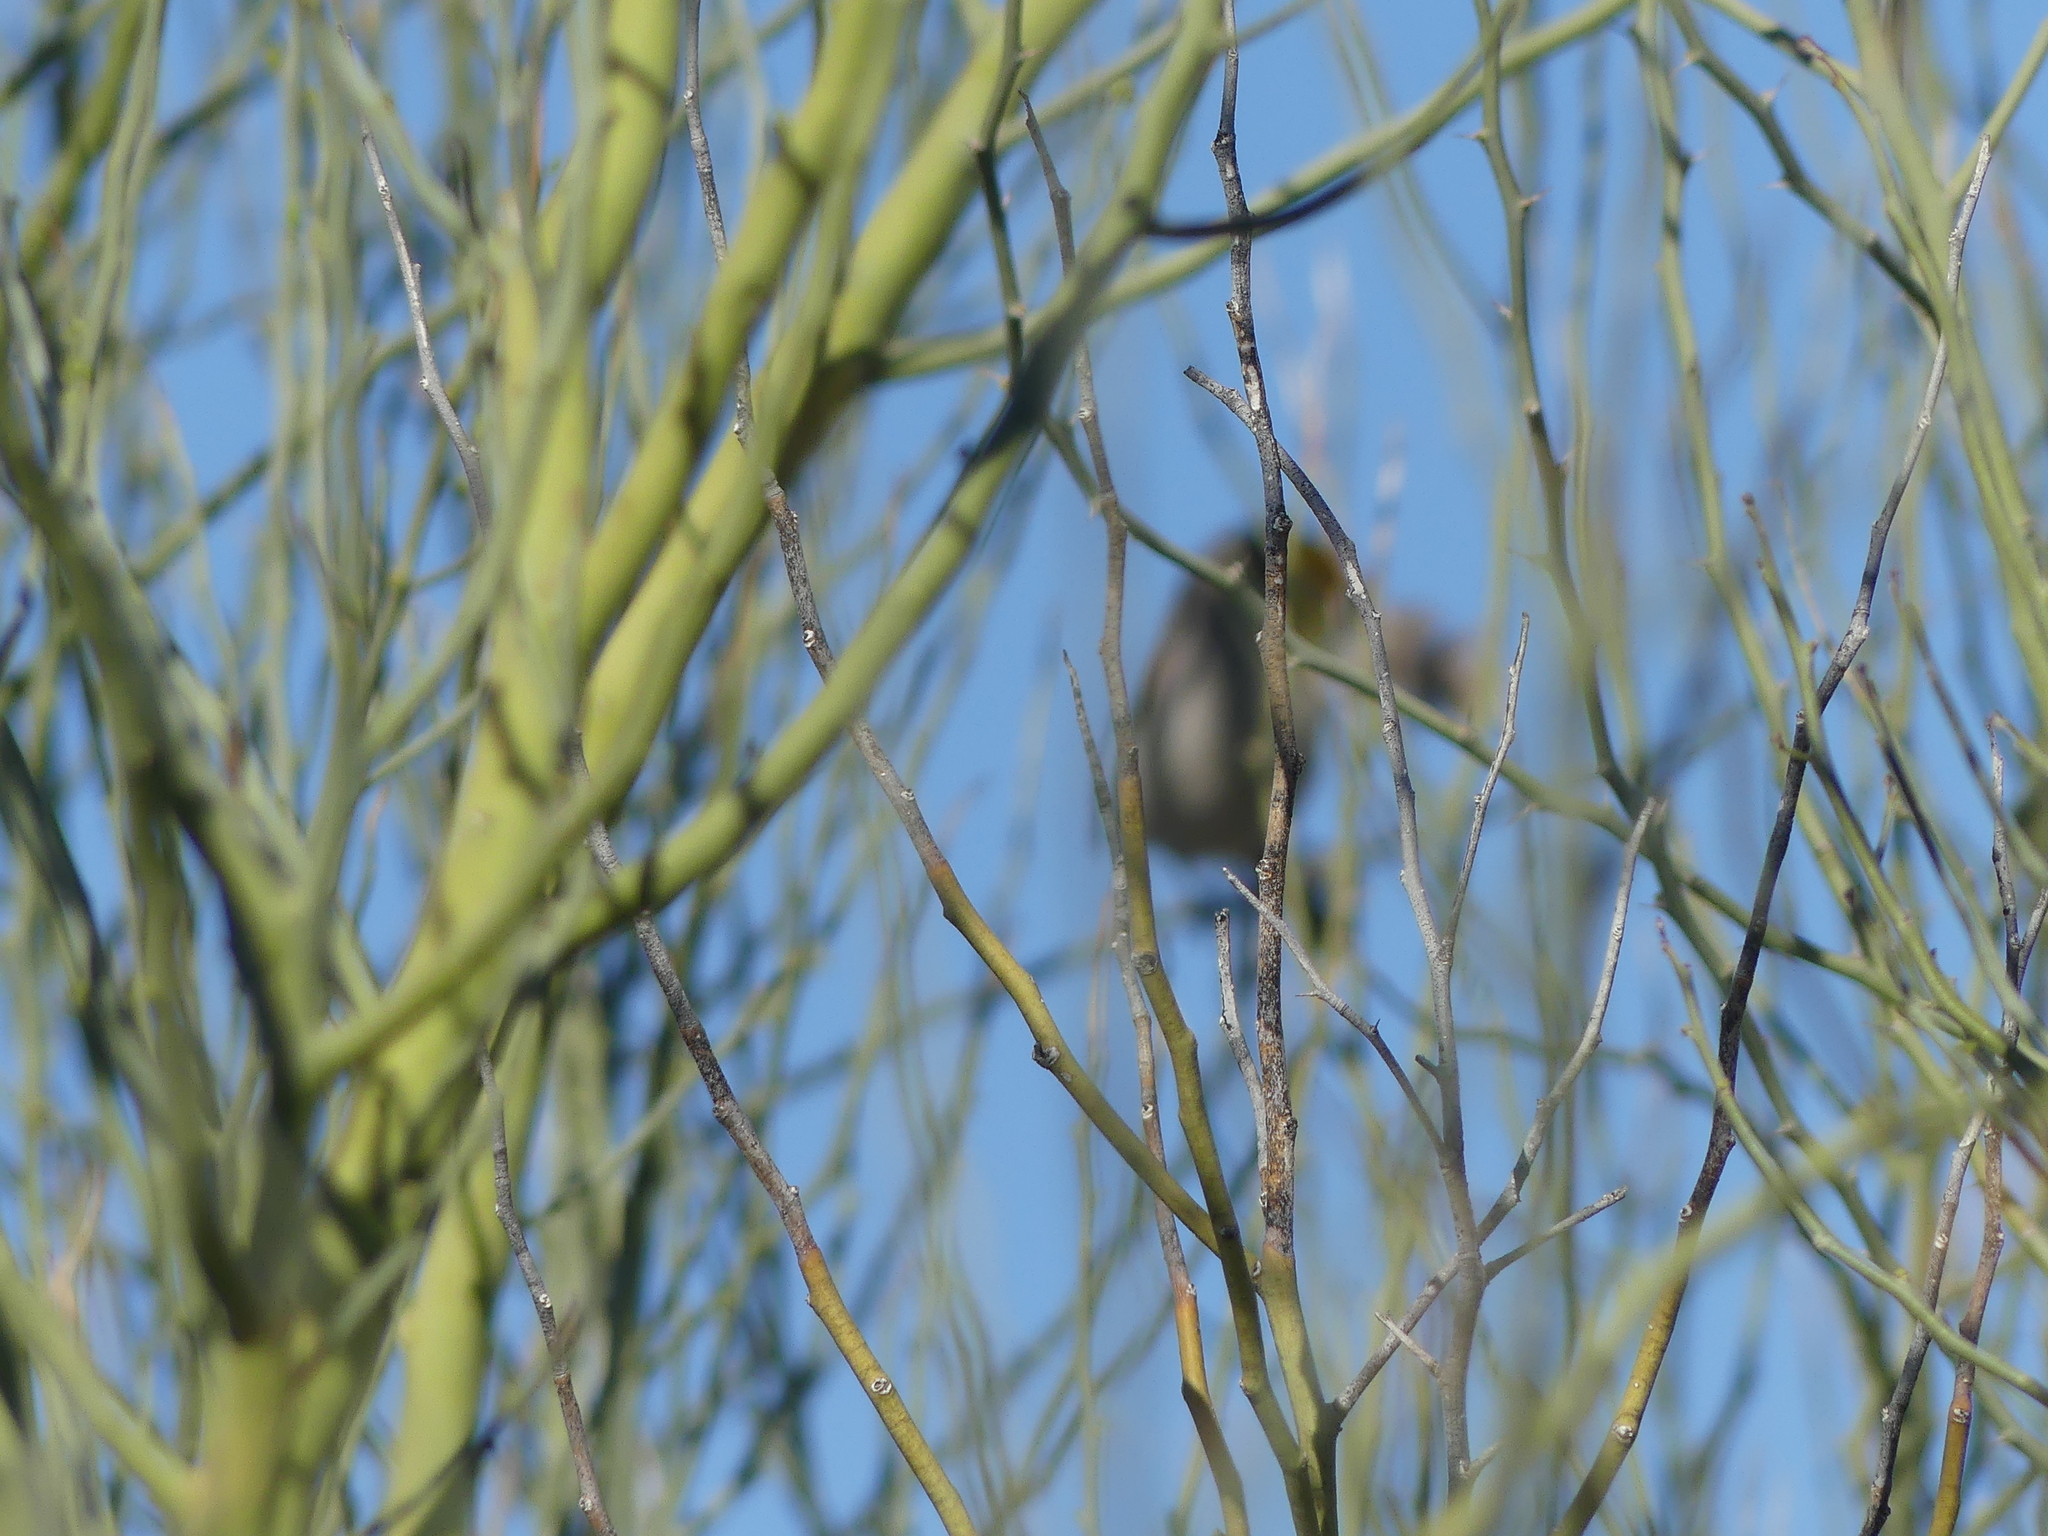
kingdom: Animalia
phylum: Chordata
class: Aves
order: Passeriformes
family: Remizidae
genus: Auriparus
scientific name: Auriparus flaviceps
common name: Verdin
